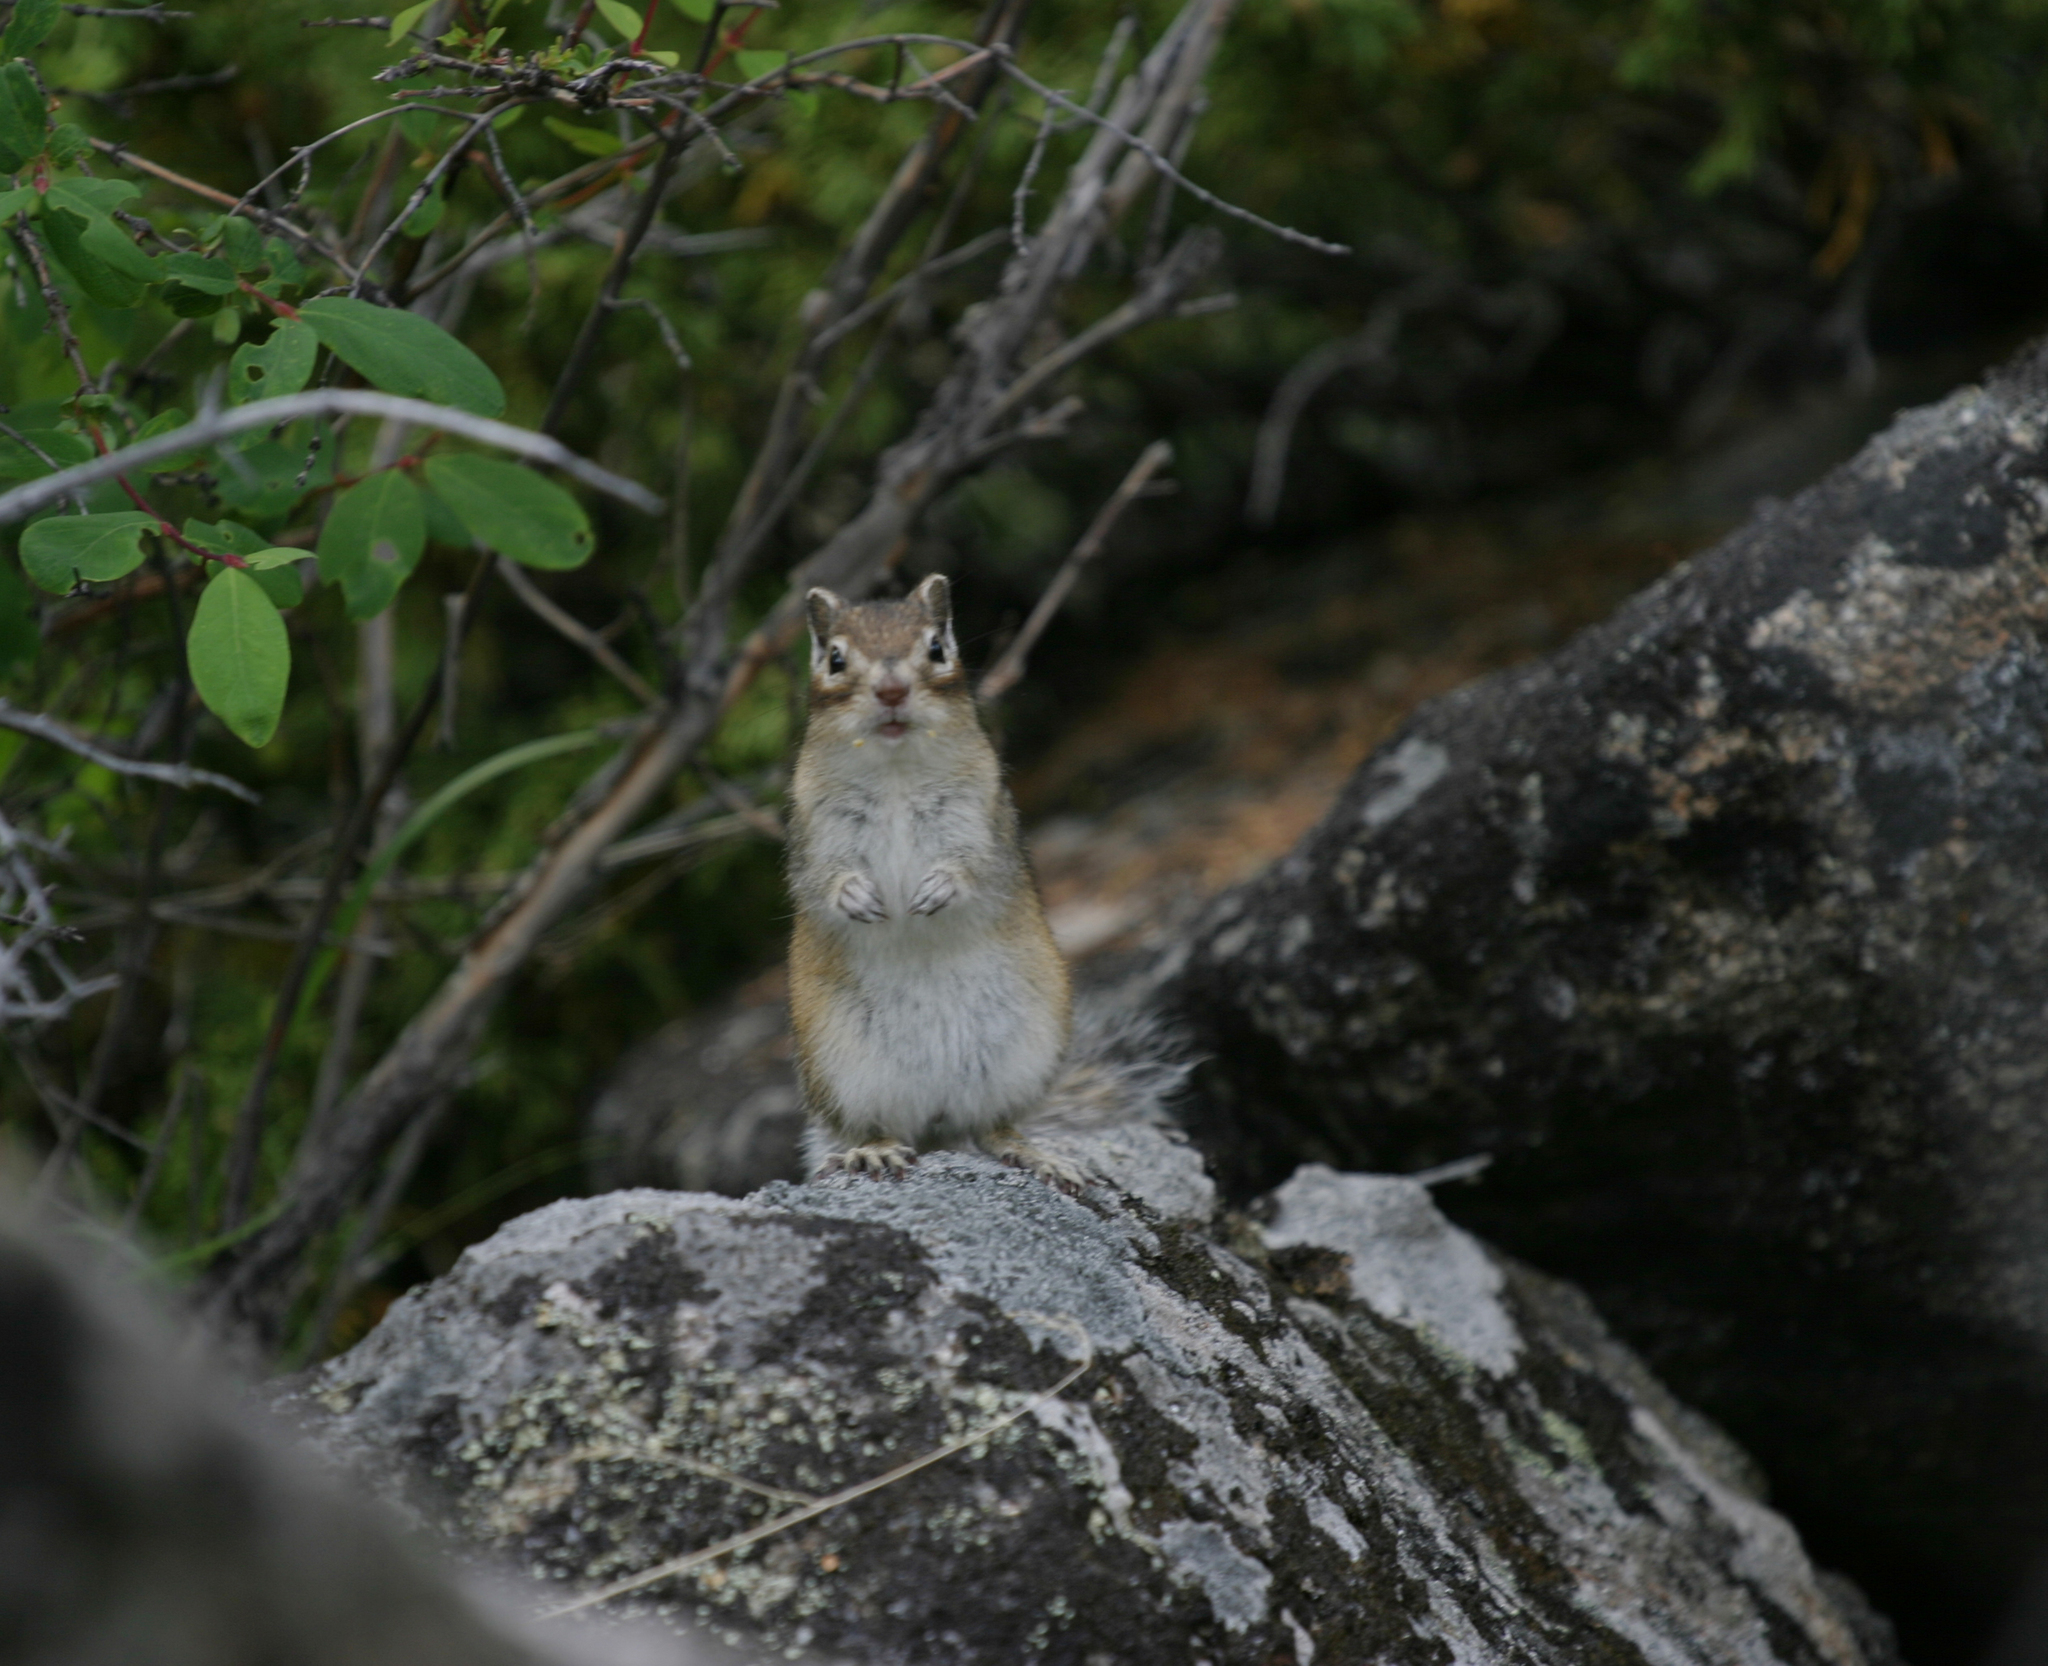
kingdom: Animalia
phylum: Chordata
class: Mammalia
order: Rodentia
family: Sciuridae
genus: Tamias
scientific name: Tamias sibiricus
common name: Siberian chipmunk
